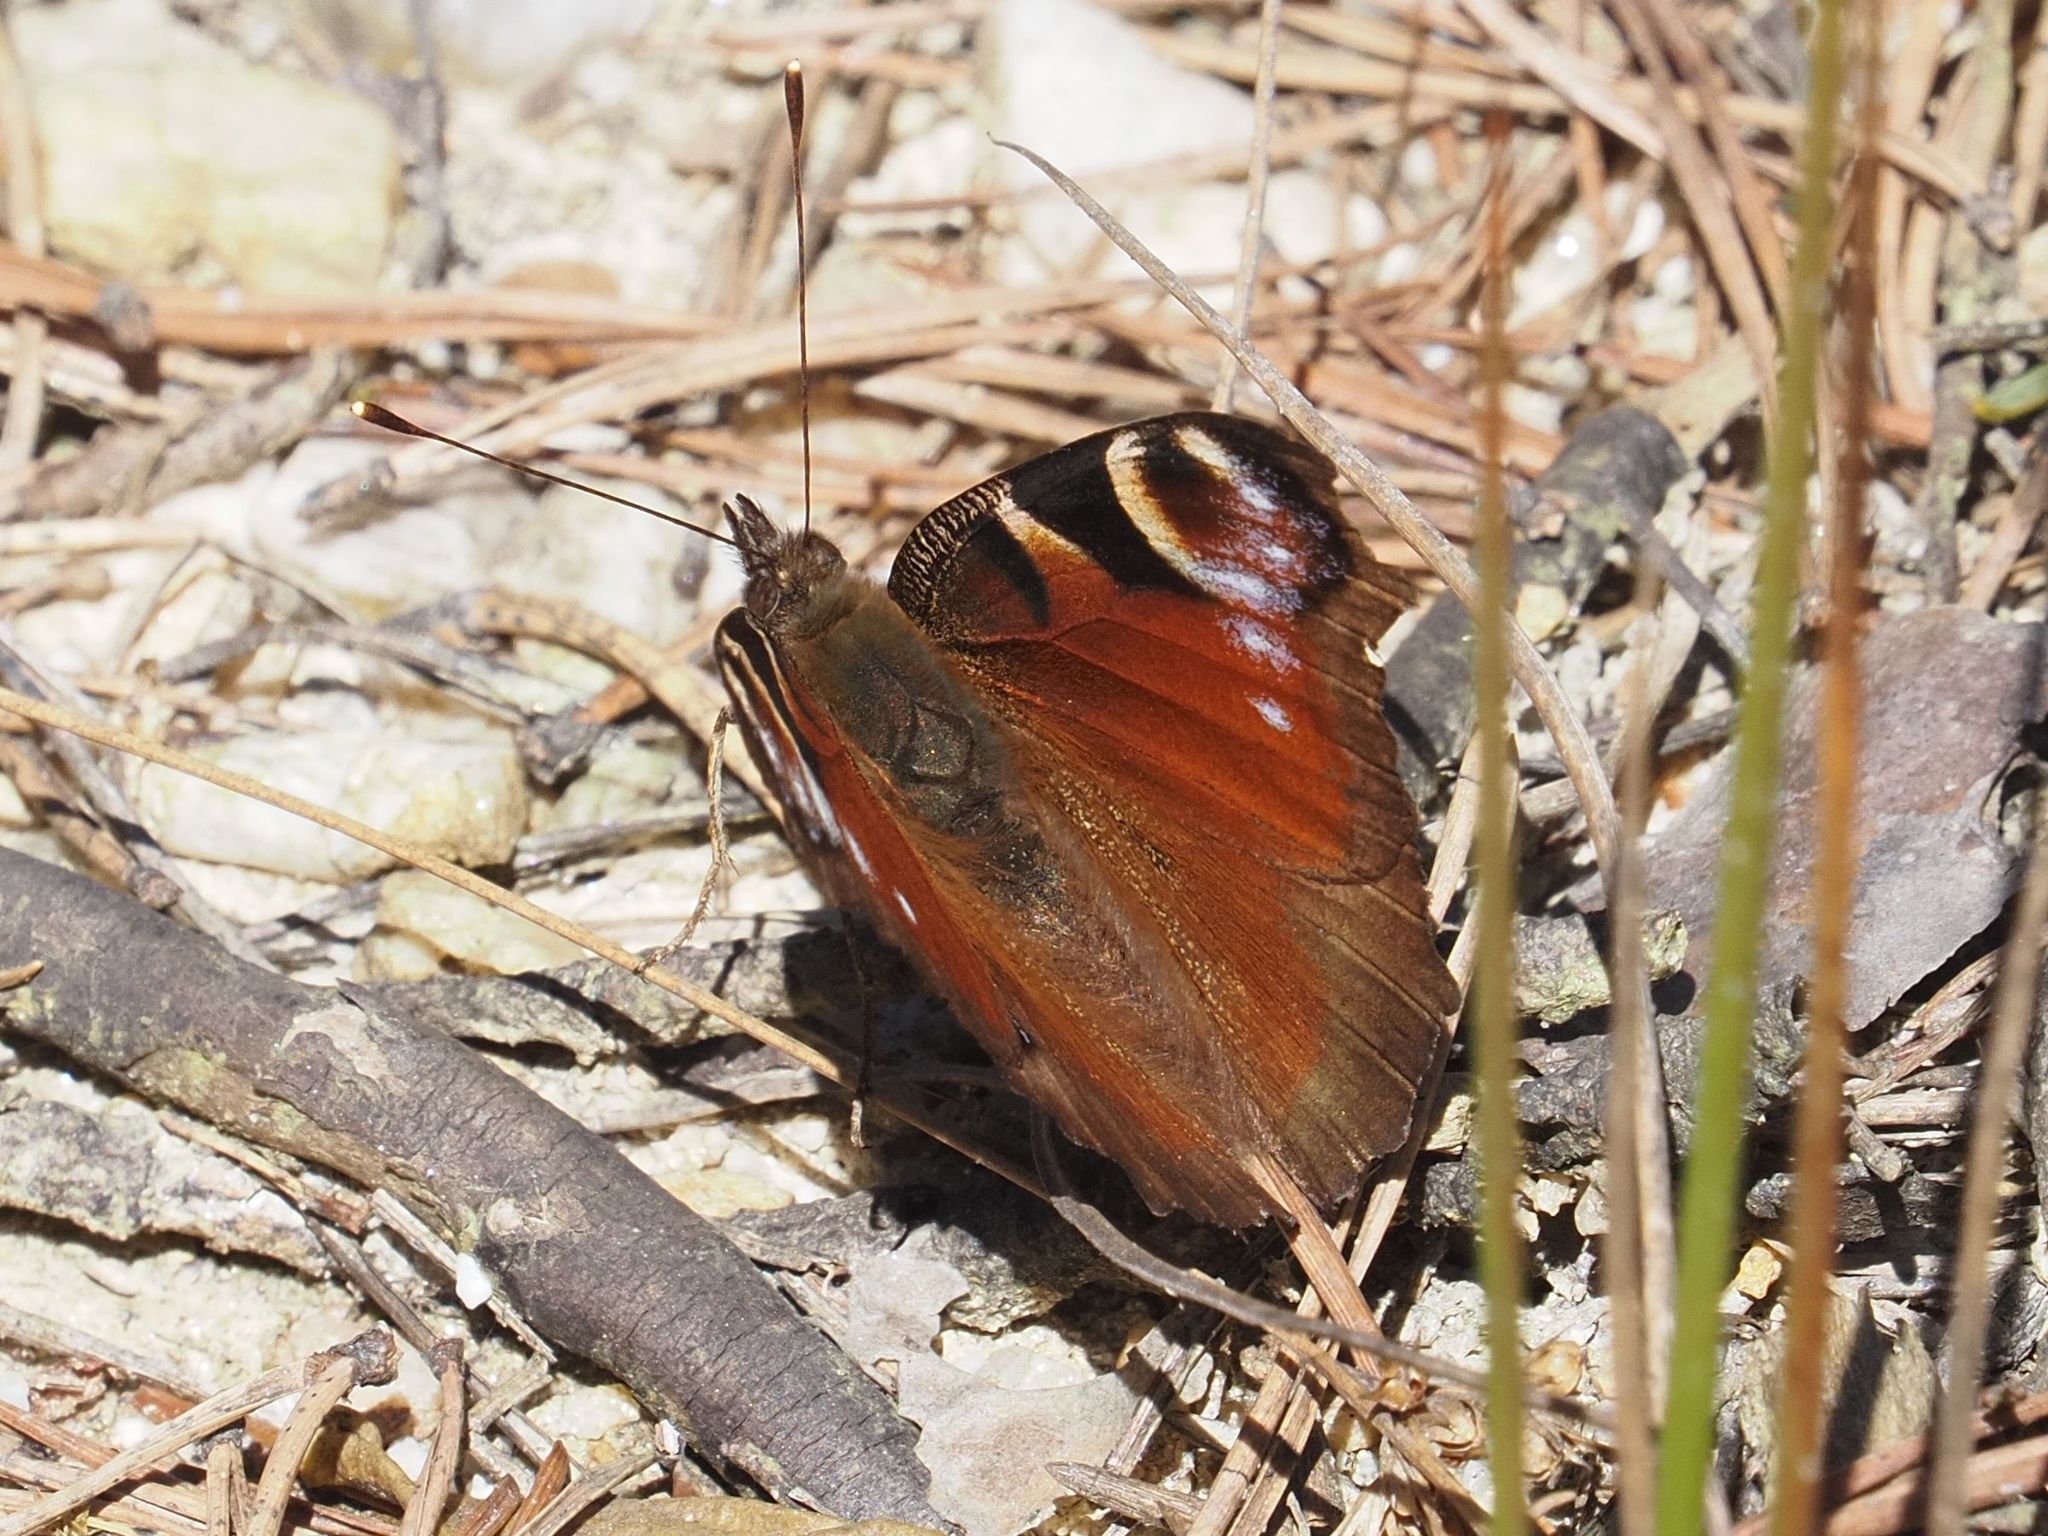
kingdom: Animalia
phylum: Arthropoda
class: Insecta
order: Lepidoptera
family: Nymphalidae
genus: Aglais
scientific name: Aglais io
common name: Peacock
